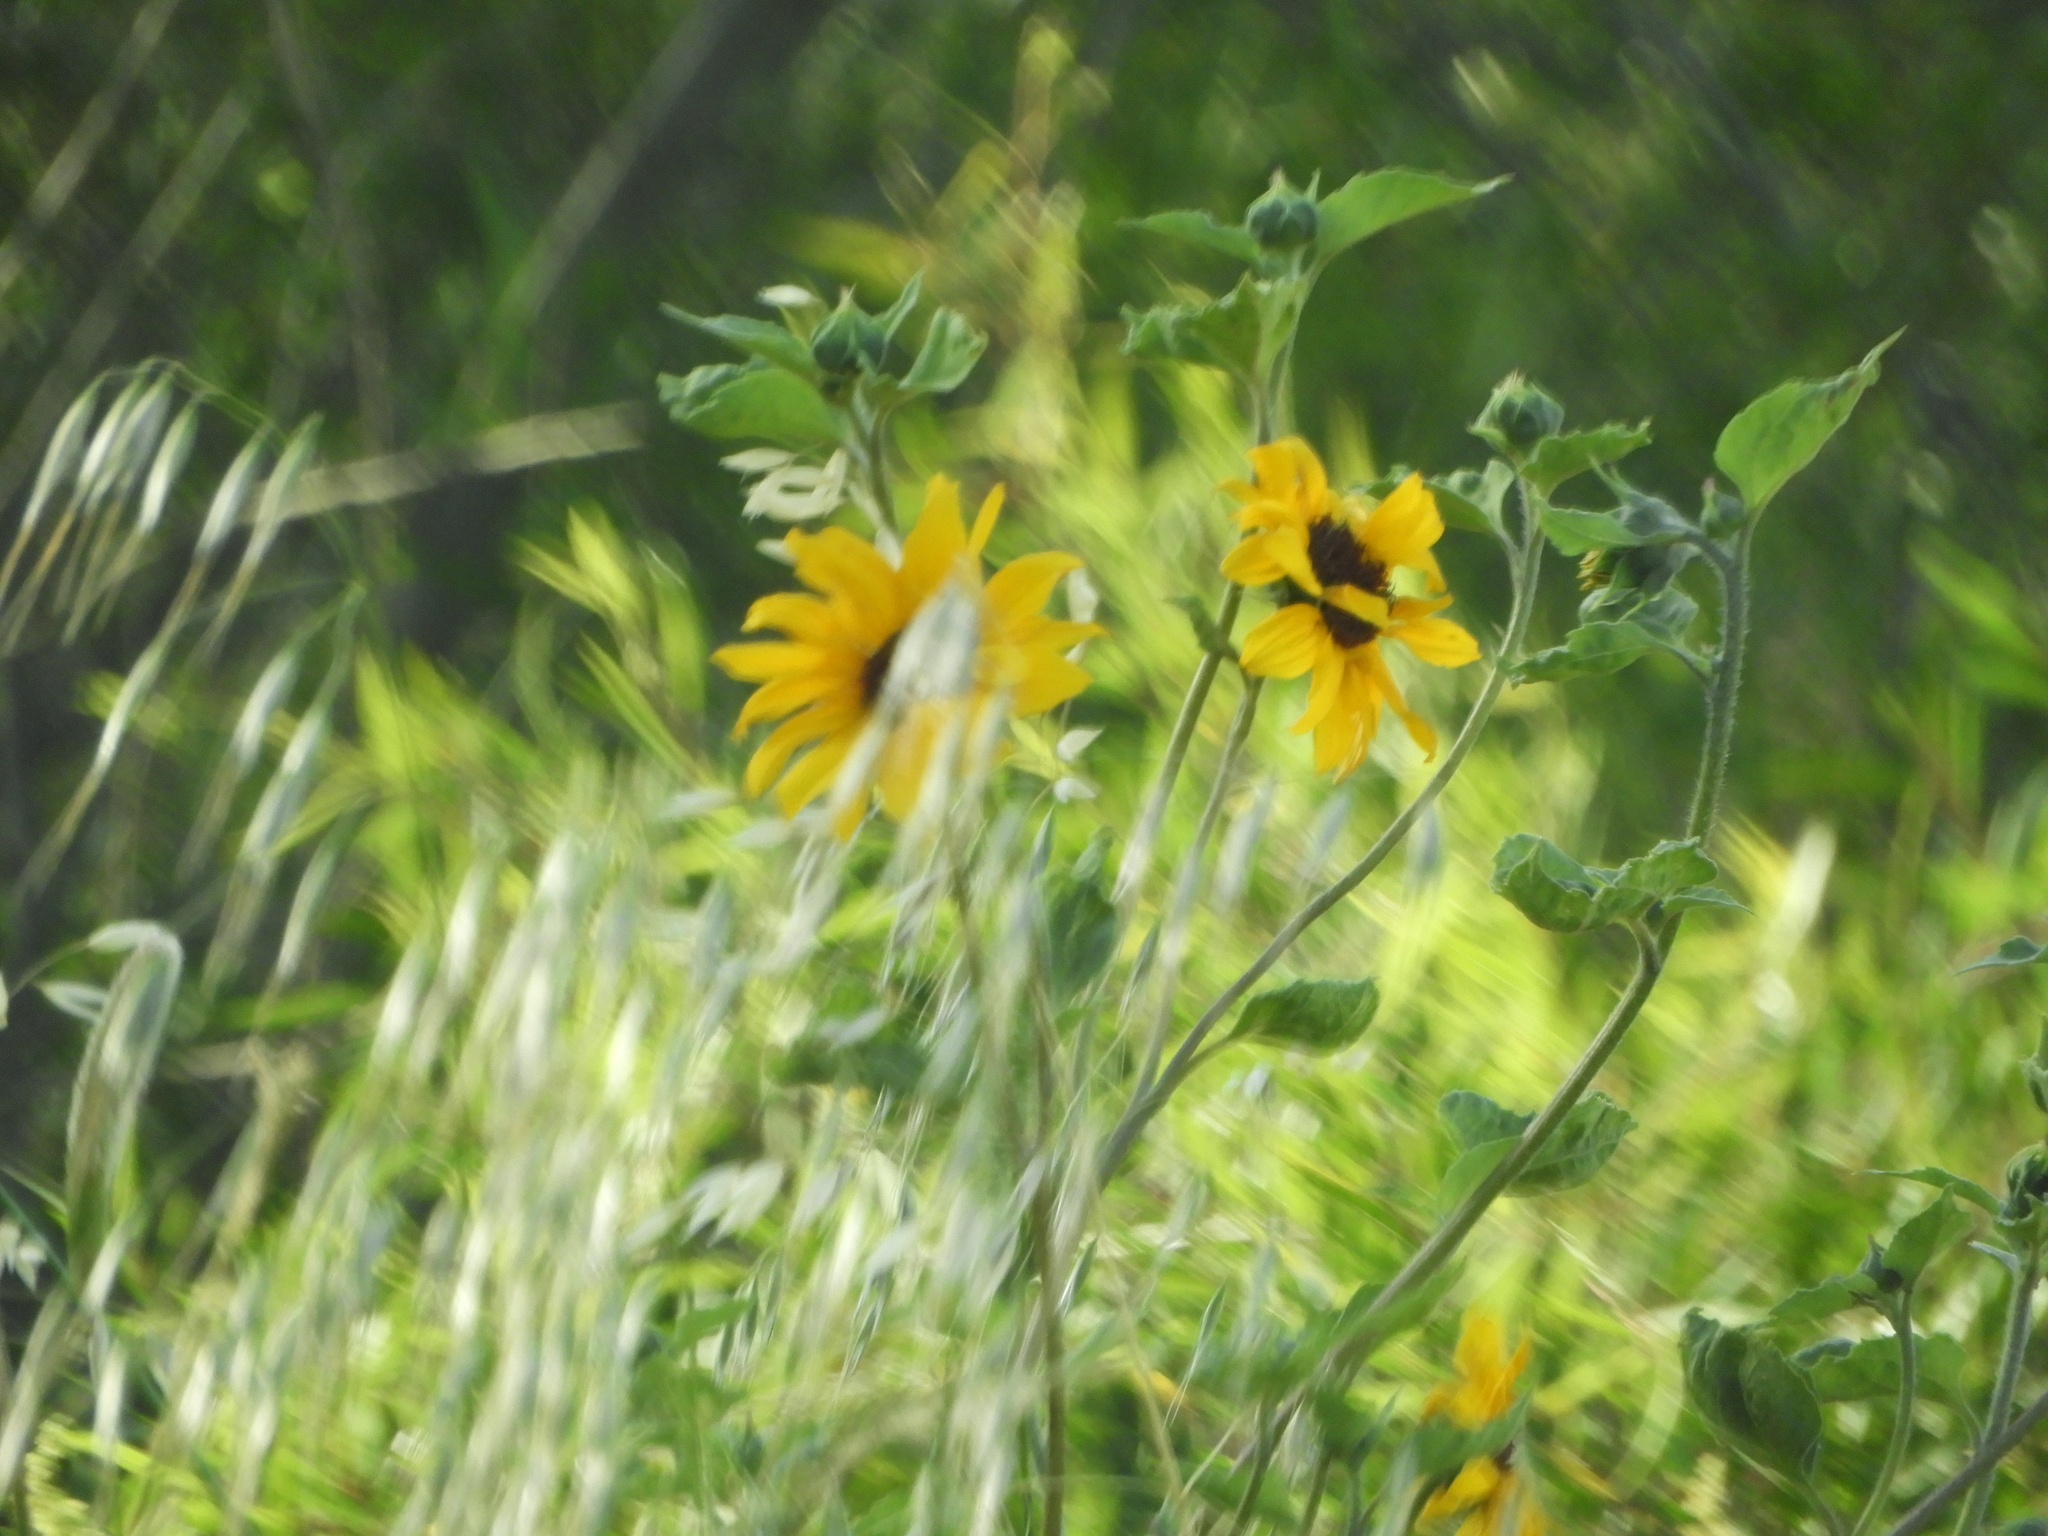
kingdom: Plantae
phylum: Tracheophyta
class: Magnoliopsida
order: Asterales
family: Asteraceae
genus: Helianthus
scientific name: Helianthus annuus
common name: Sunflower
